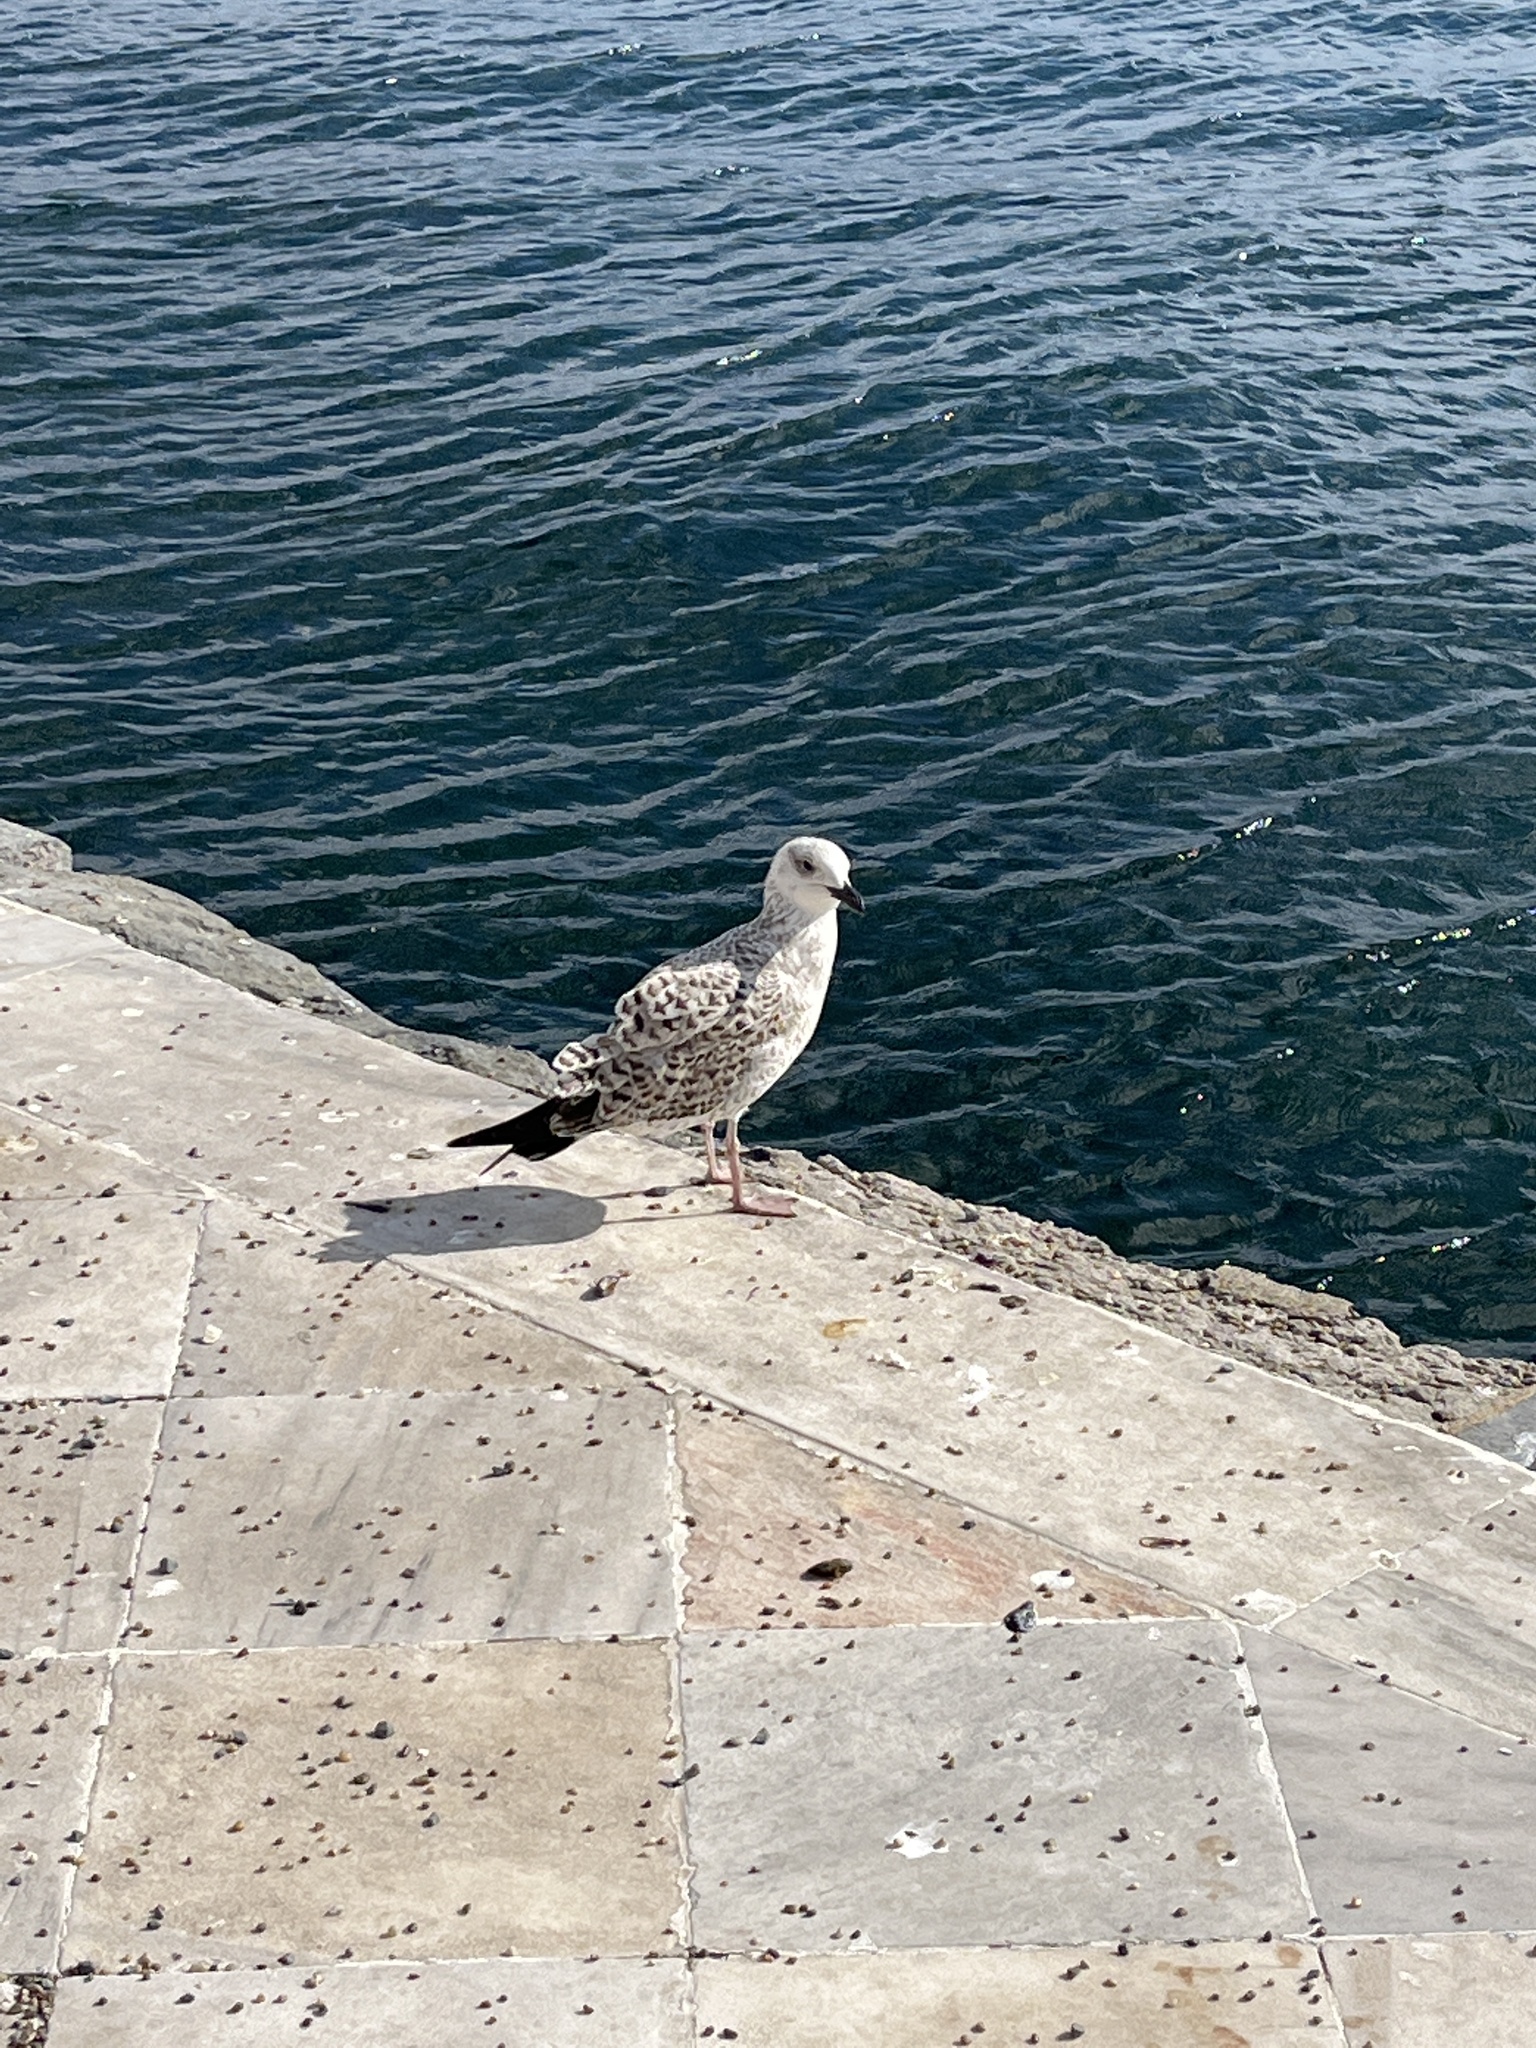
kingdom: Animalia
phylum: Chordata
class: Aves
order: Charadriiformes
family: Laridae
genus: Larus
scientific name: Larus michahellis
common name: Yellow-legged gull
